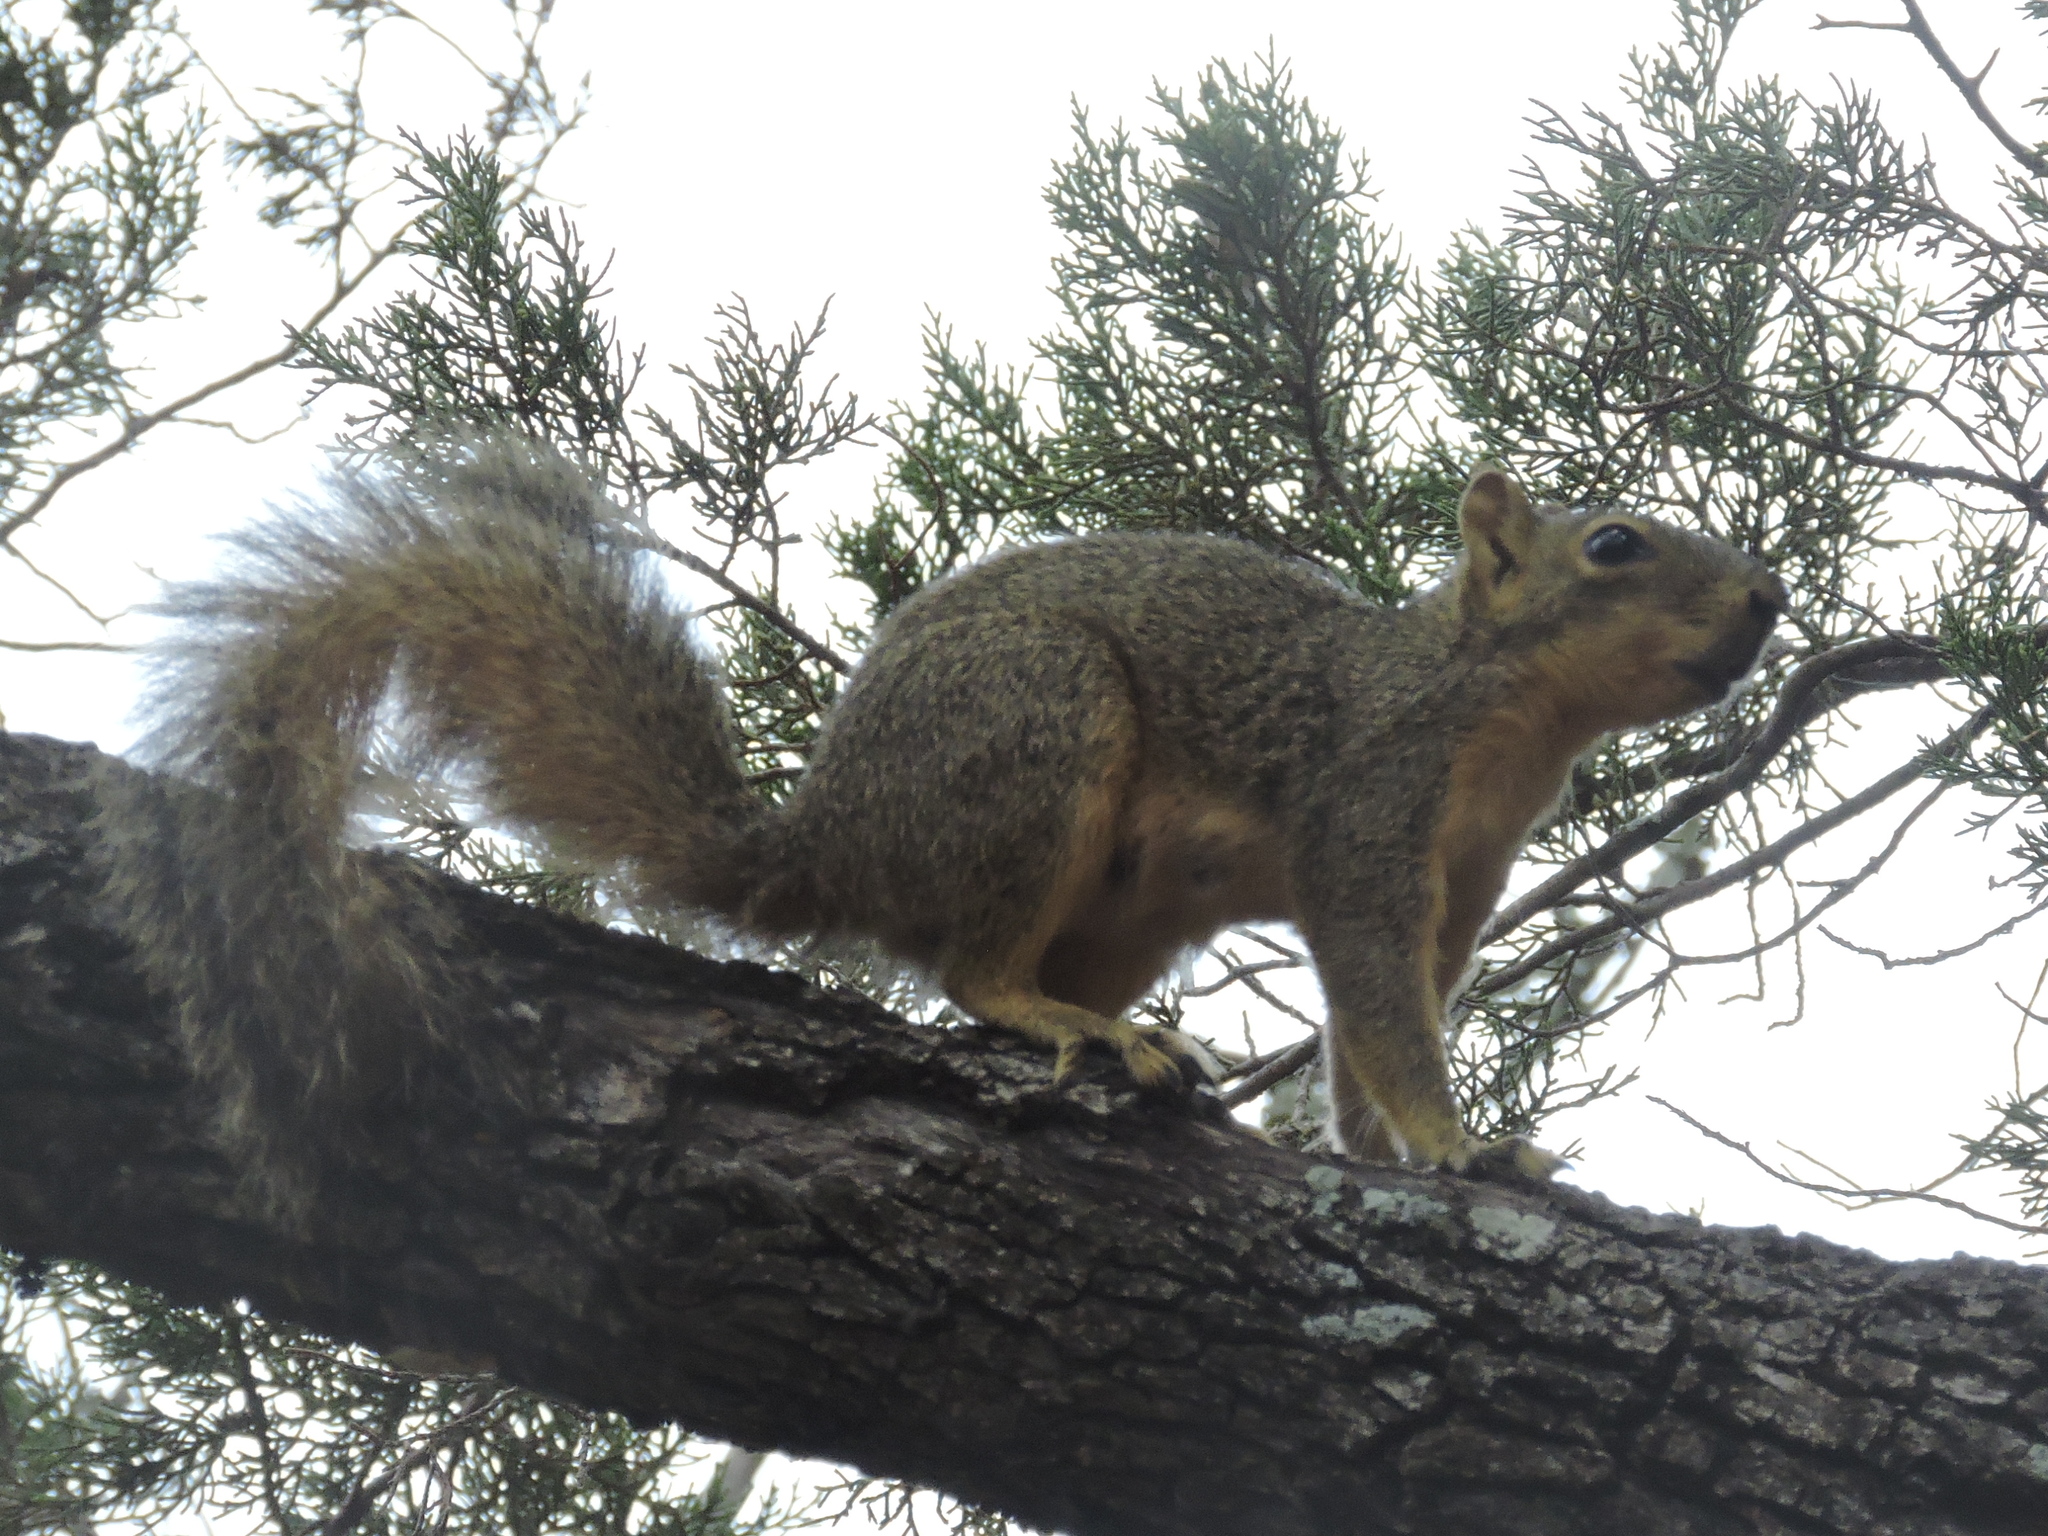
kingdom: Animalia
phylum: Chordata
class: Mammalia
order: Rodentia
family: Sciuridae
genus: Sciurus
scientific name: Sciurus niger
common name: Fox squirrel
